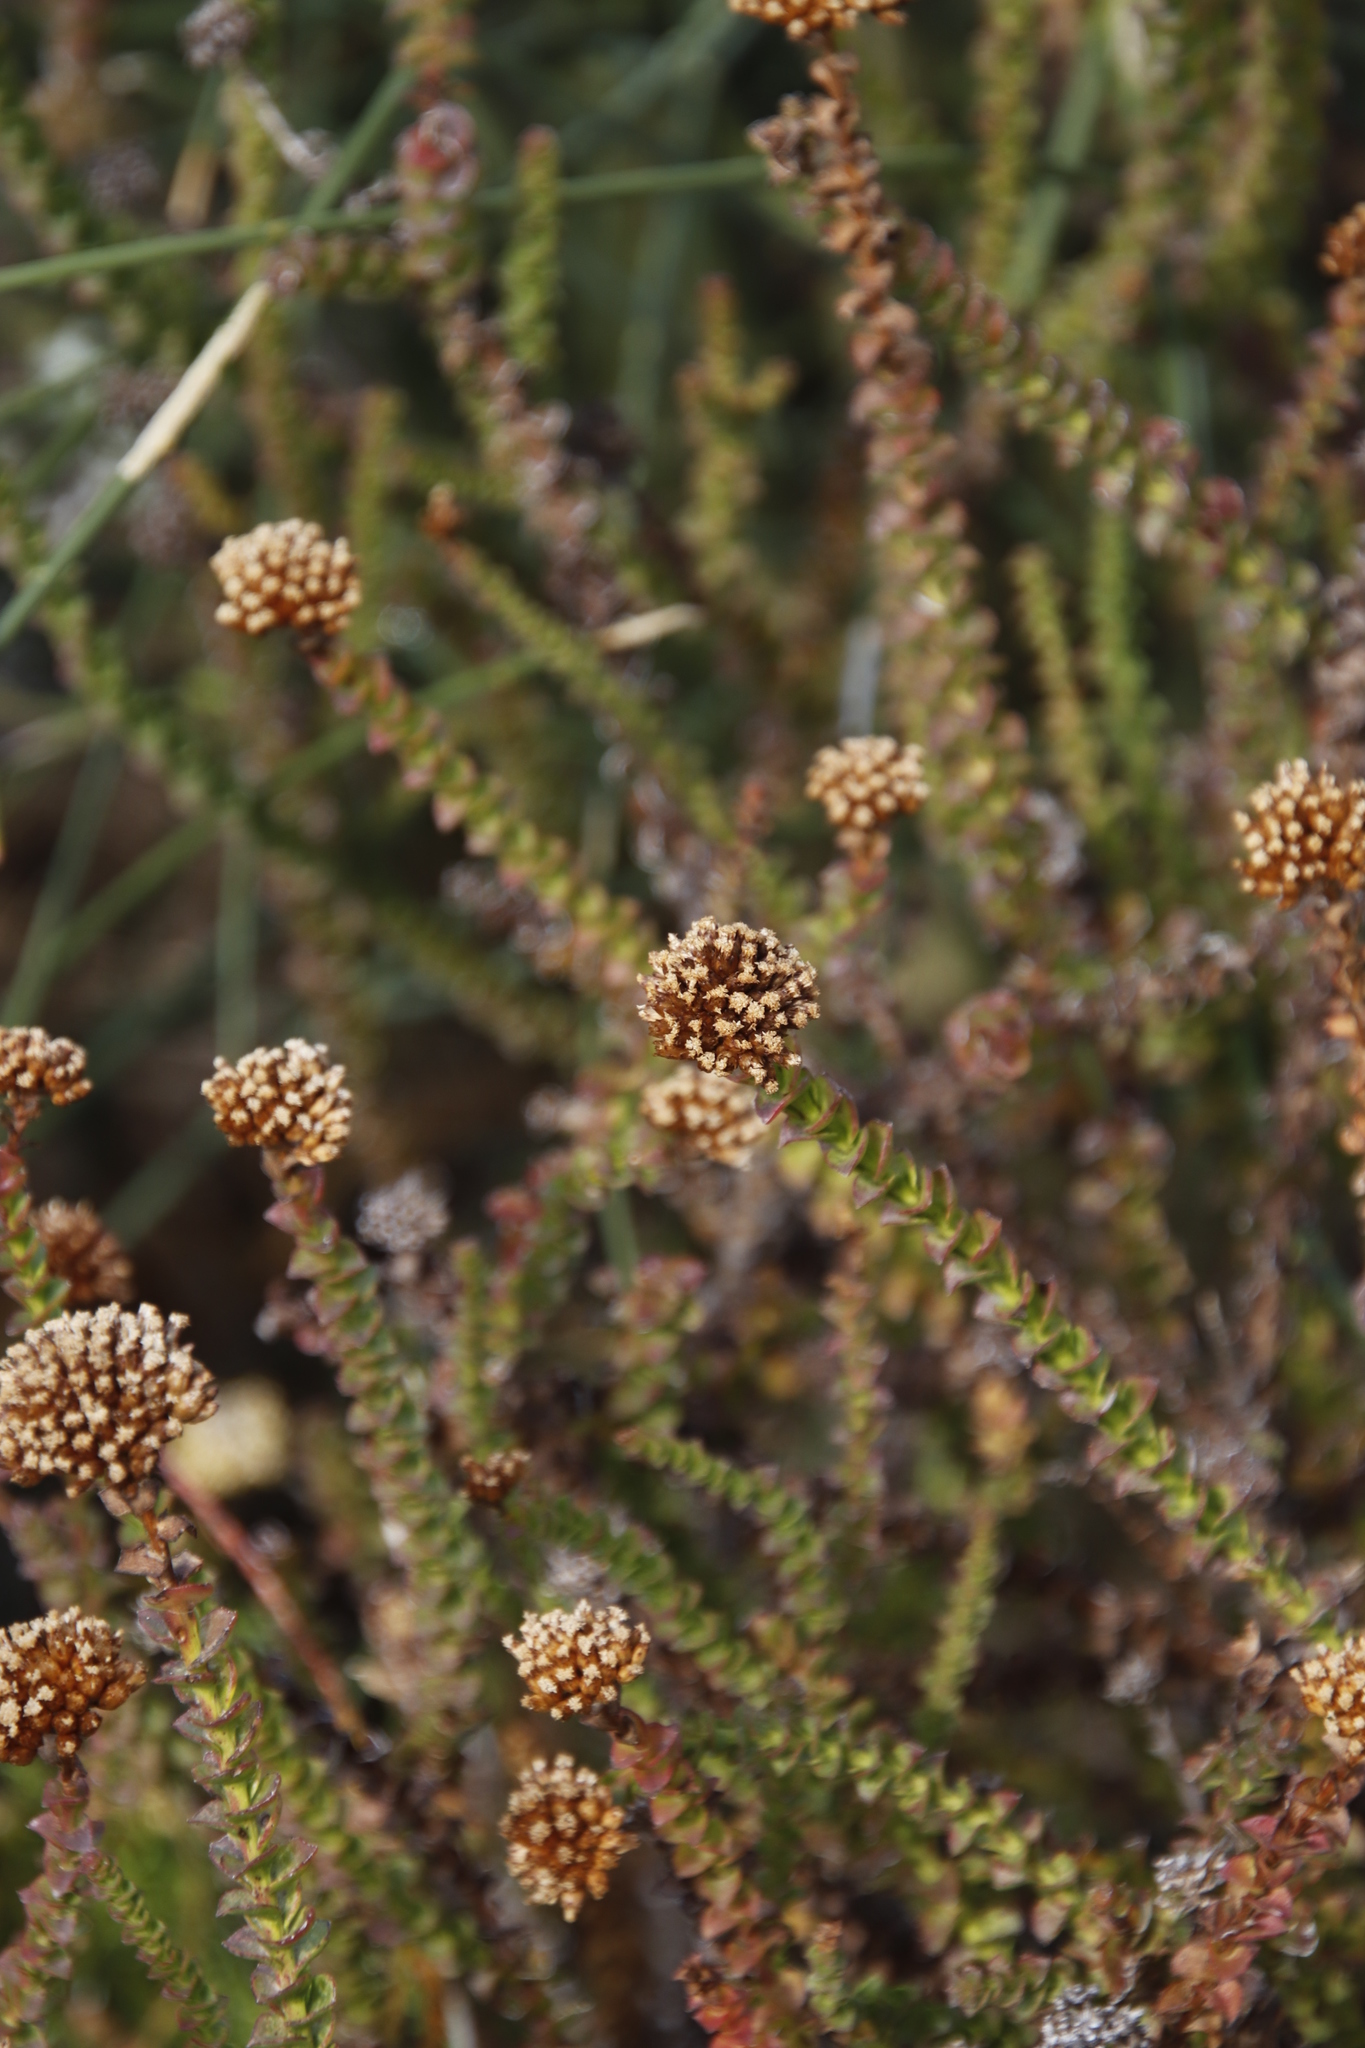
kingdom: Plantae
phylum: Tracheophyta
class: Magnoliopsida
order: Asterales
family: Asteraceae
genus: Athanasia
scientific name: Athanasia dentata
